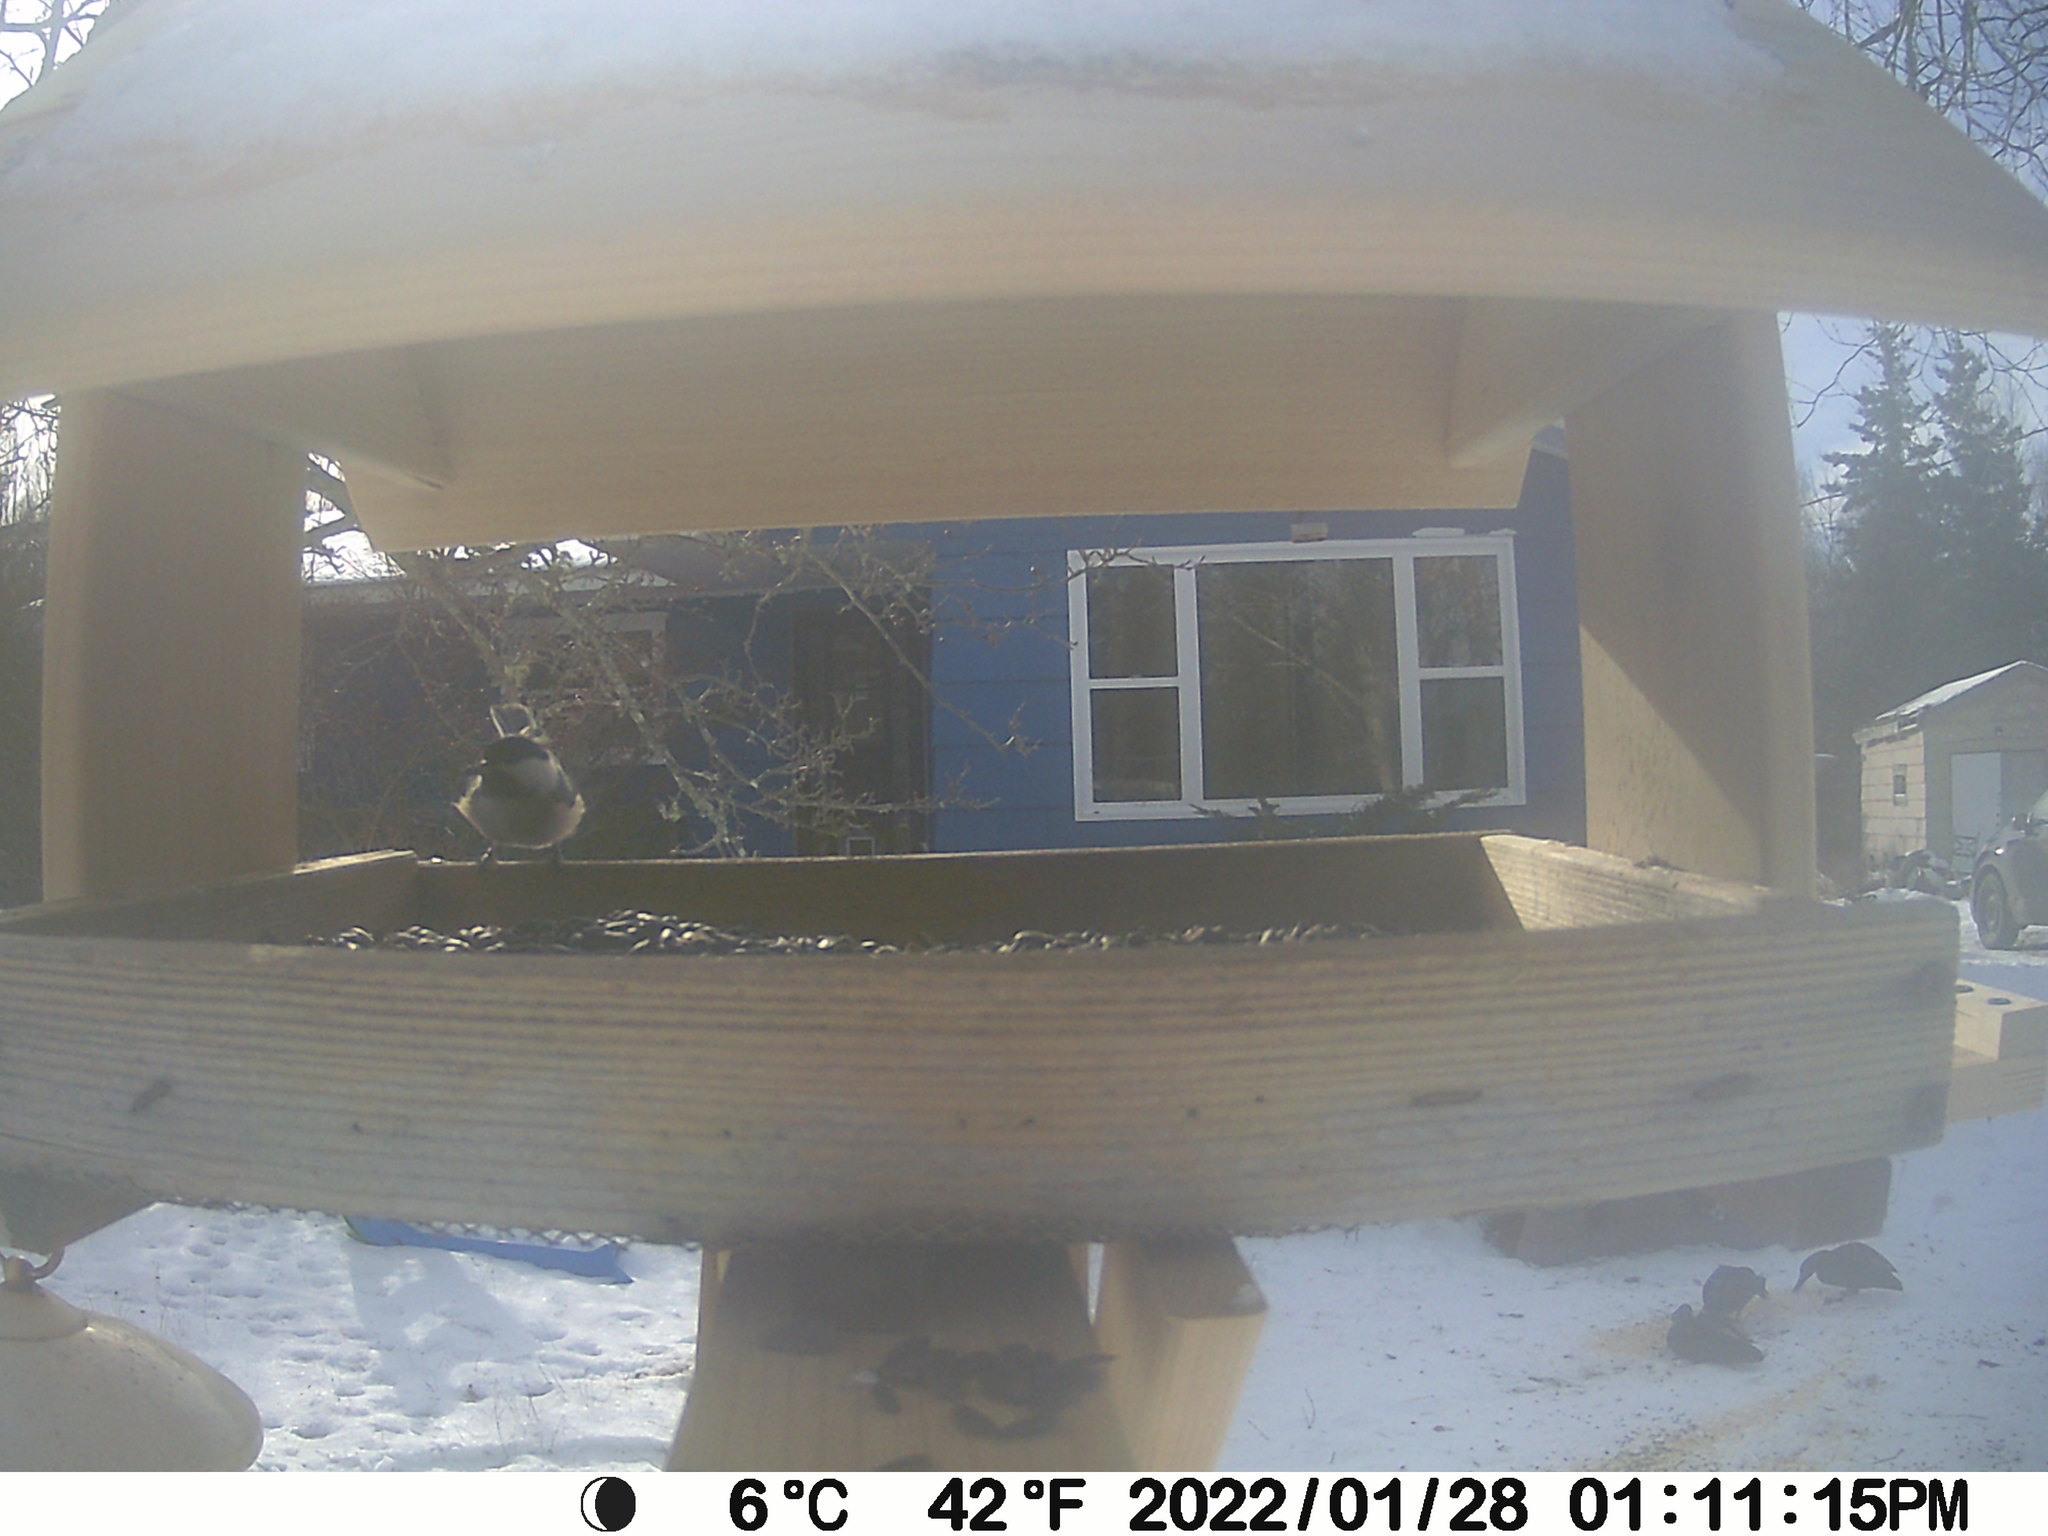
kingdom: Animalia
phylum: Chordata
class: Aves
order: Anseriformes
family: Anatidae
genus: Anas
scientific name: Anas rubripes
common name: American black duck
